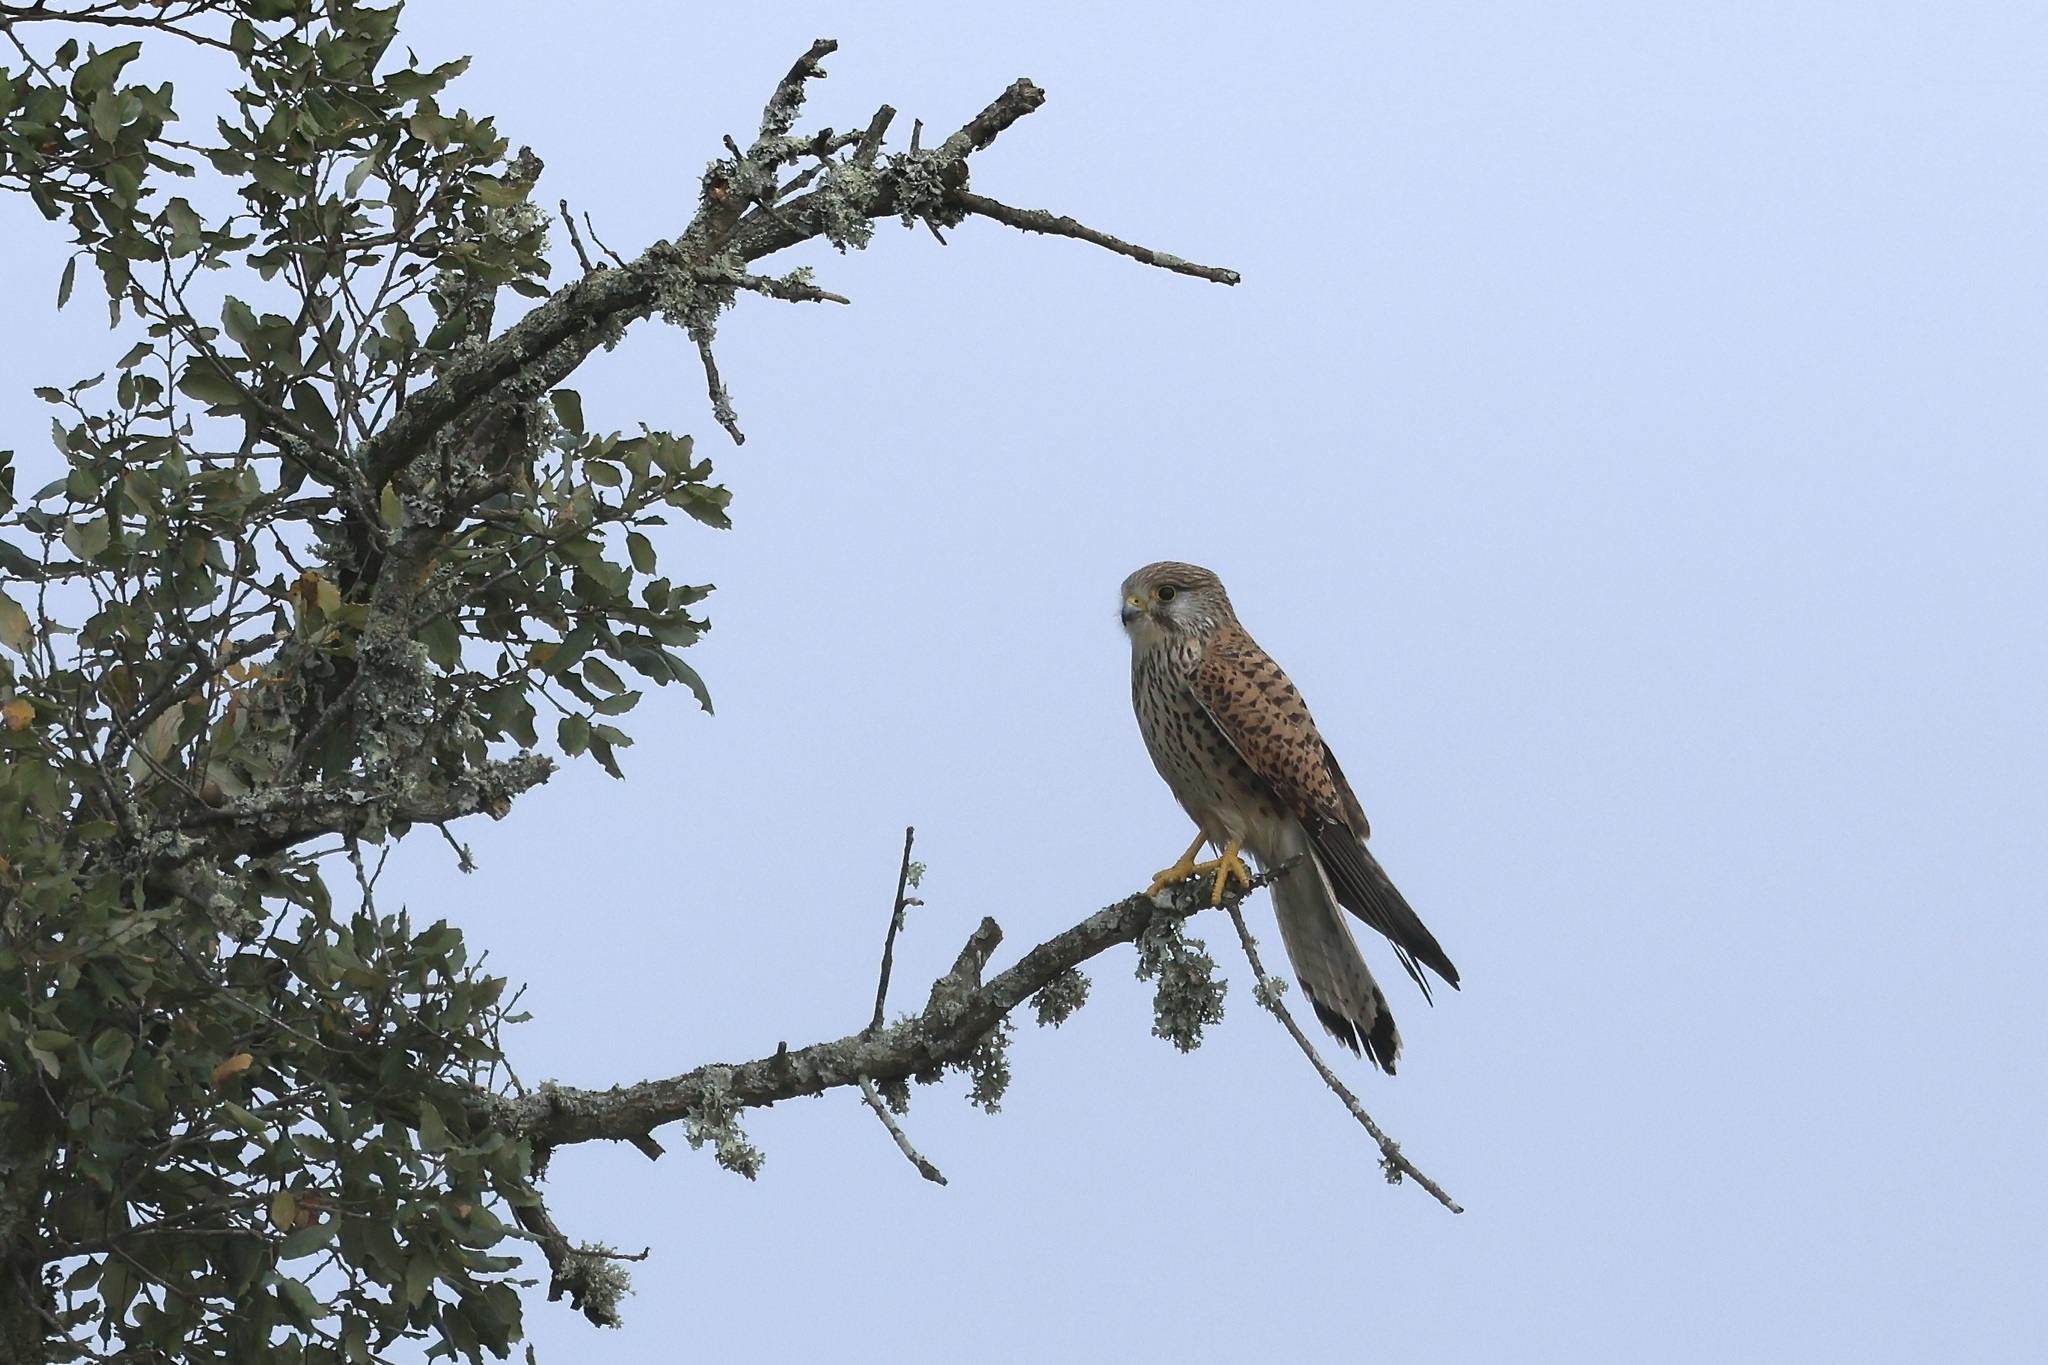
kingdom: Animalia
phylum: Chordata
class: Aves
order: Falconiformes
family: Falconidae
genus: Falco
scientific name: Falco tinnunculus
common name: Common kestrel
